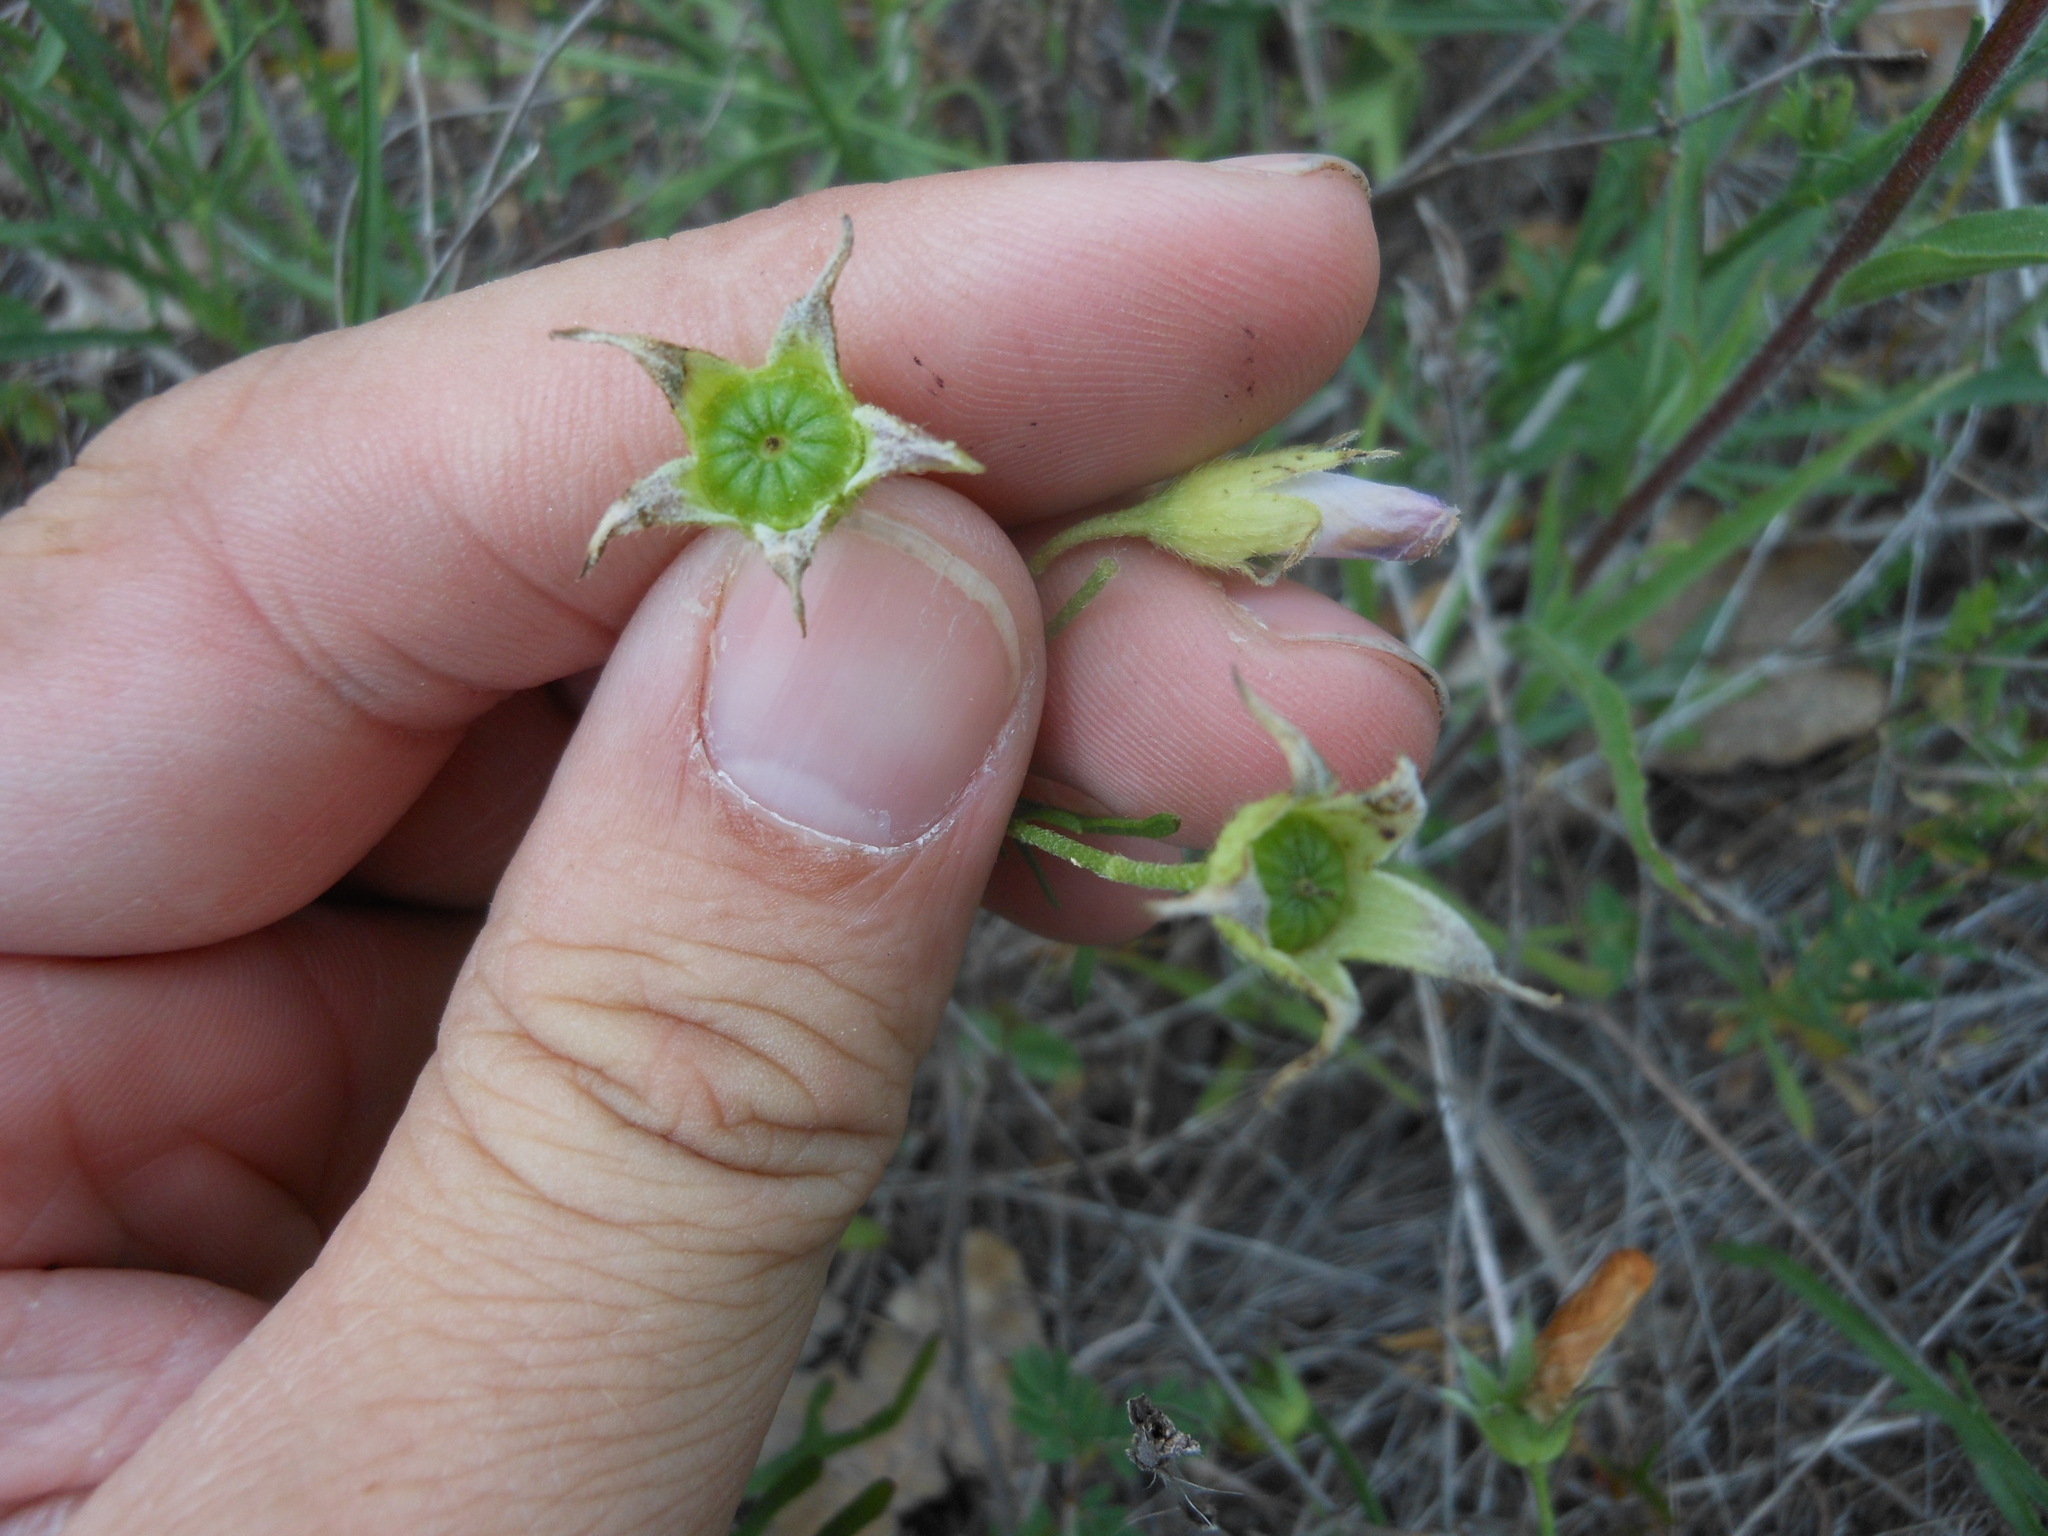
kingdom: Plantae
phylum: Tracheophyta
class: Magnoliopsida
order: Malvales
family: Malvaceae
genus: Callirhoe
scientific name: Callirhoe alcaeoides
